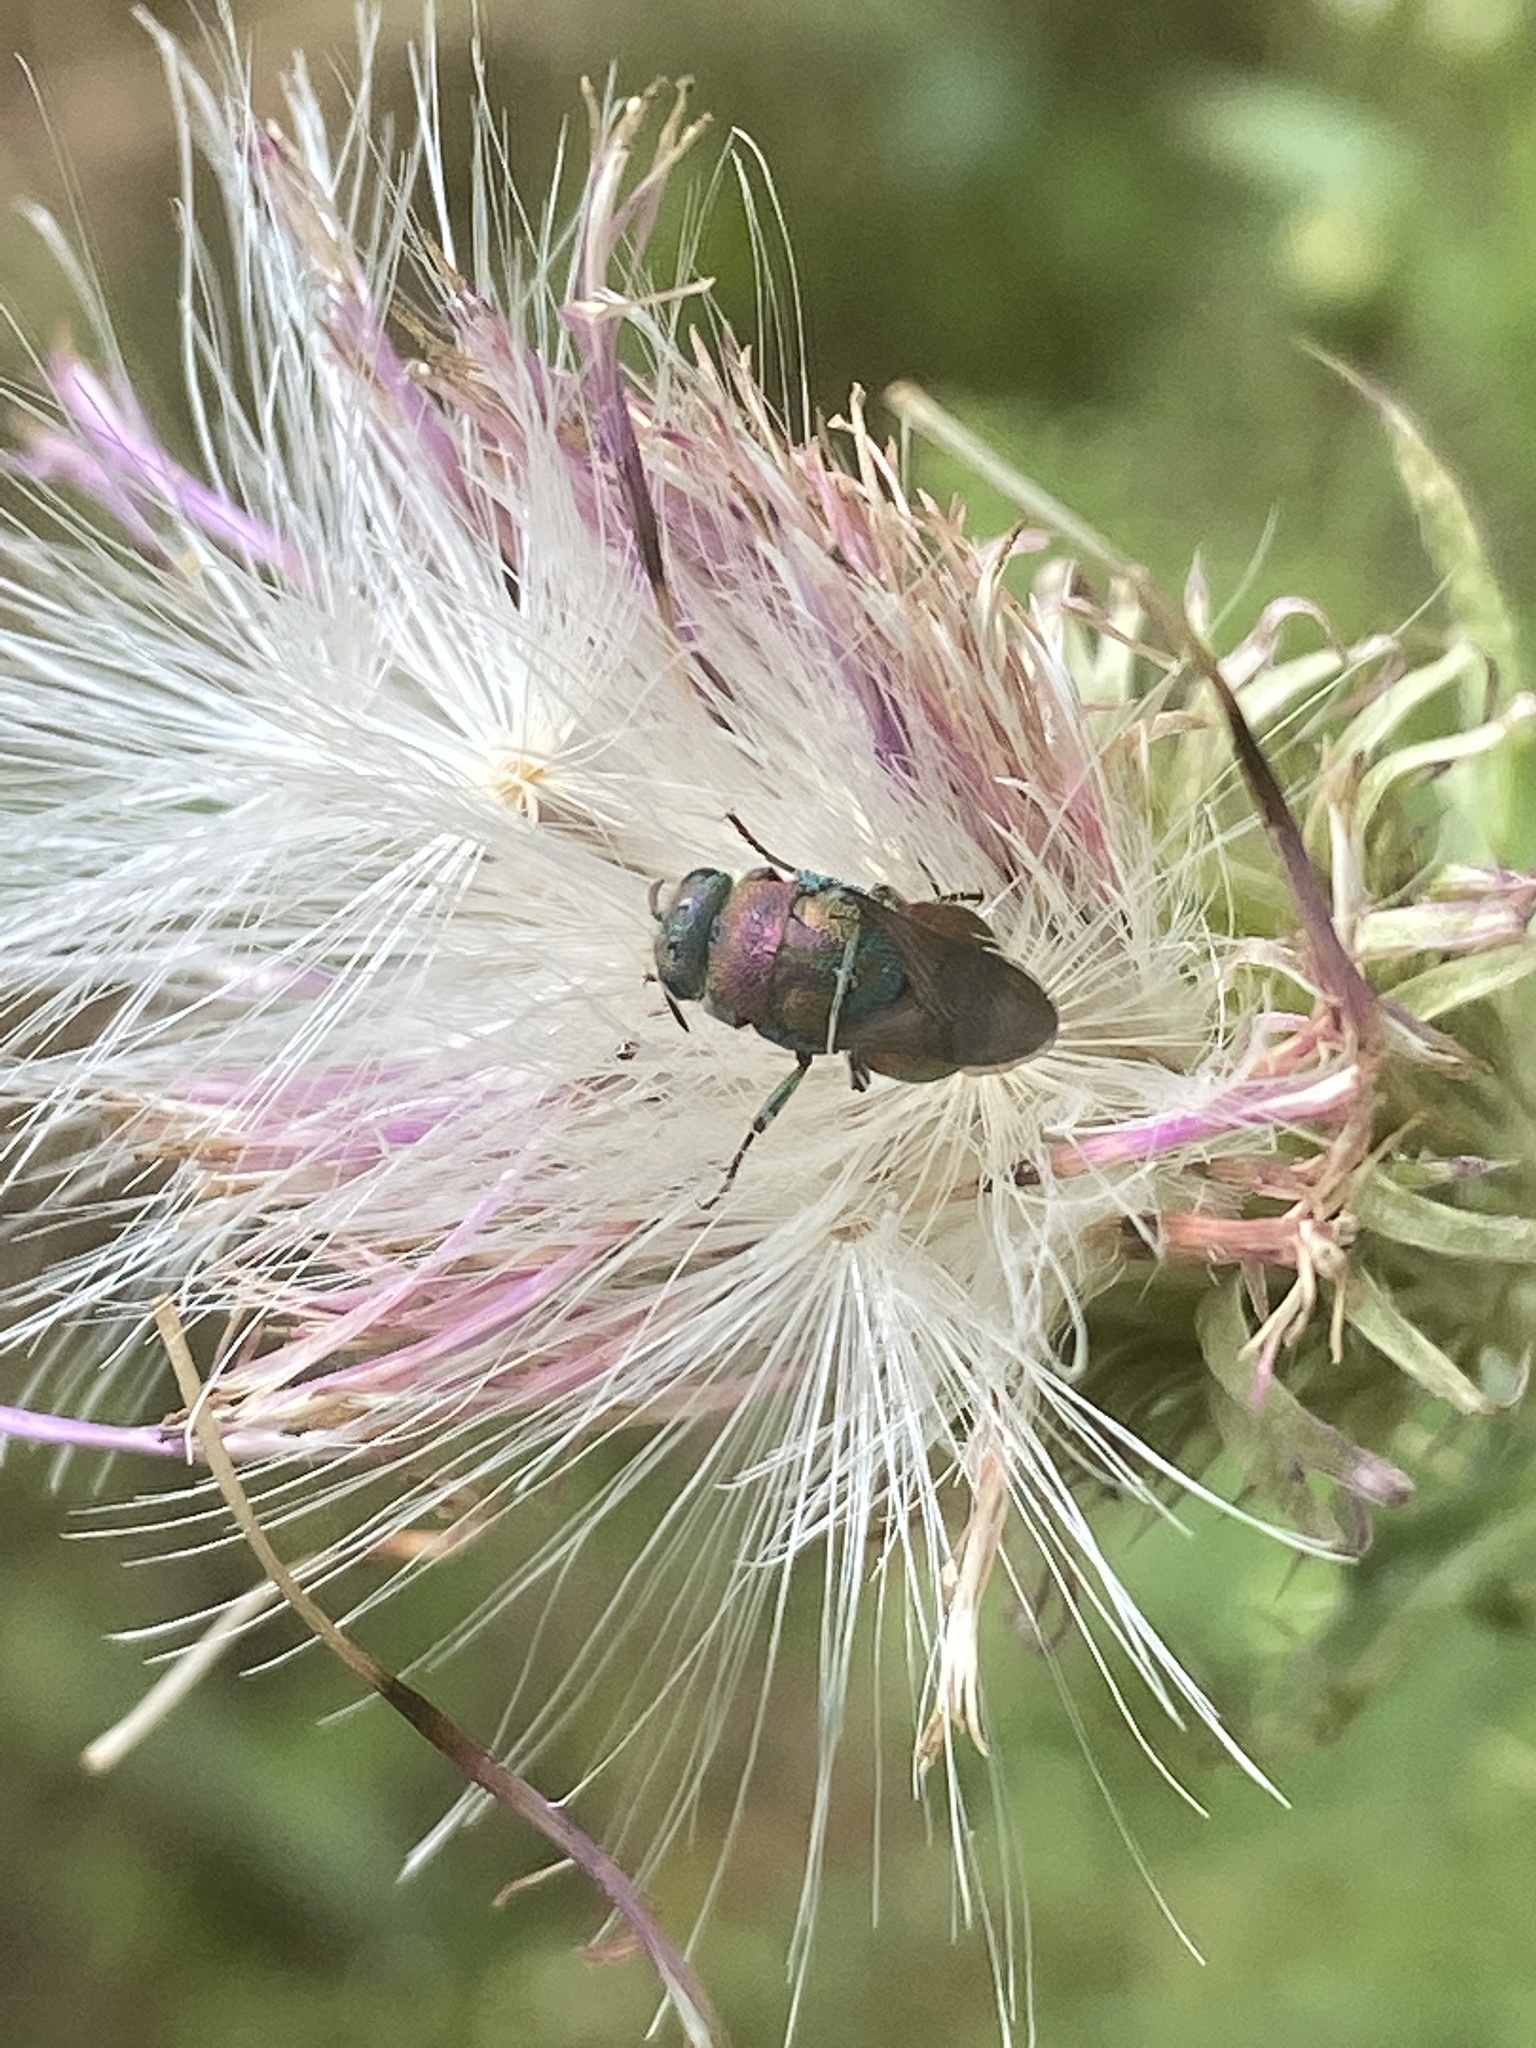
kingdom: Animalia
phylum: Arthropoda
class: Insecta
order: Hymenoptera
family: Chrysididae
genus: Hedychrum
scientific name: Hedychrum rutilans
